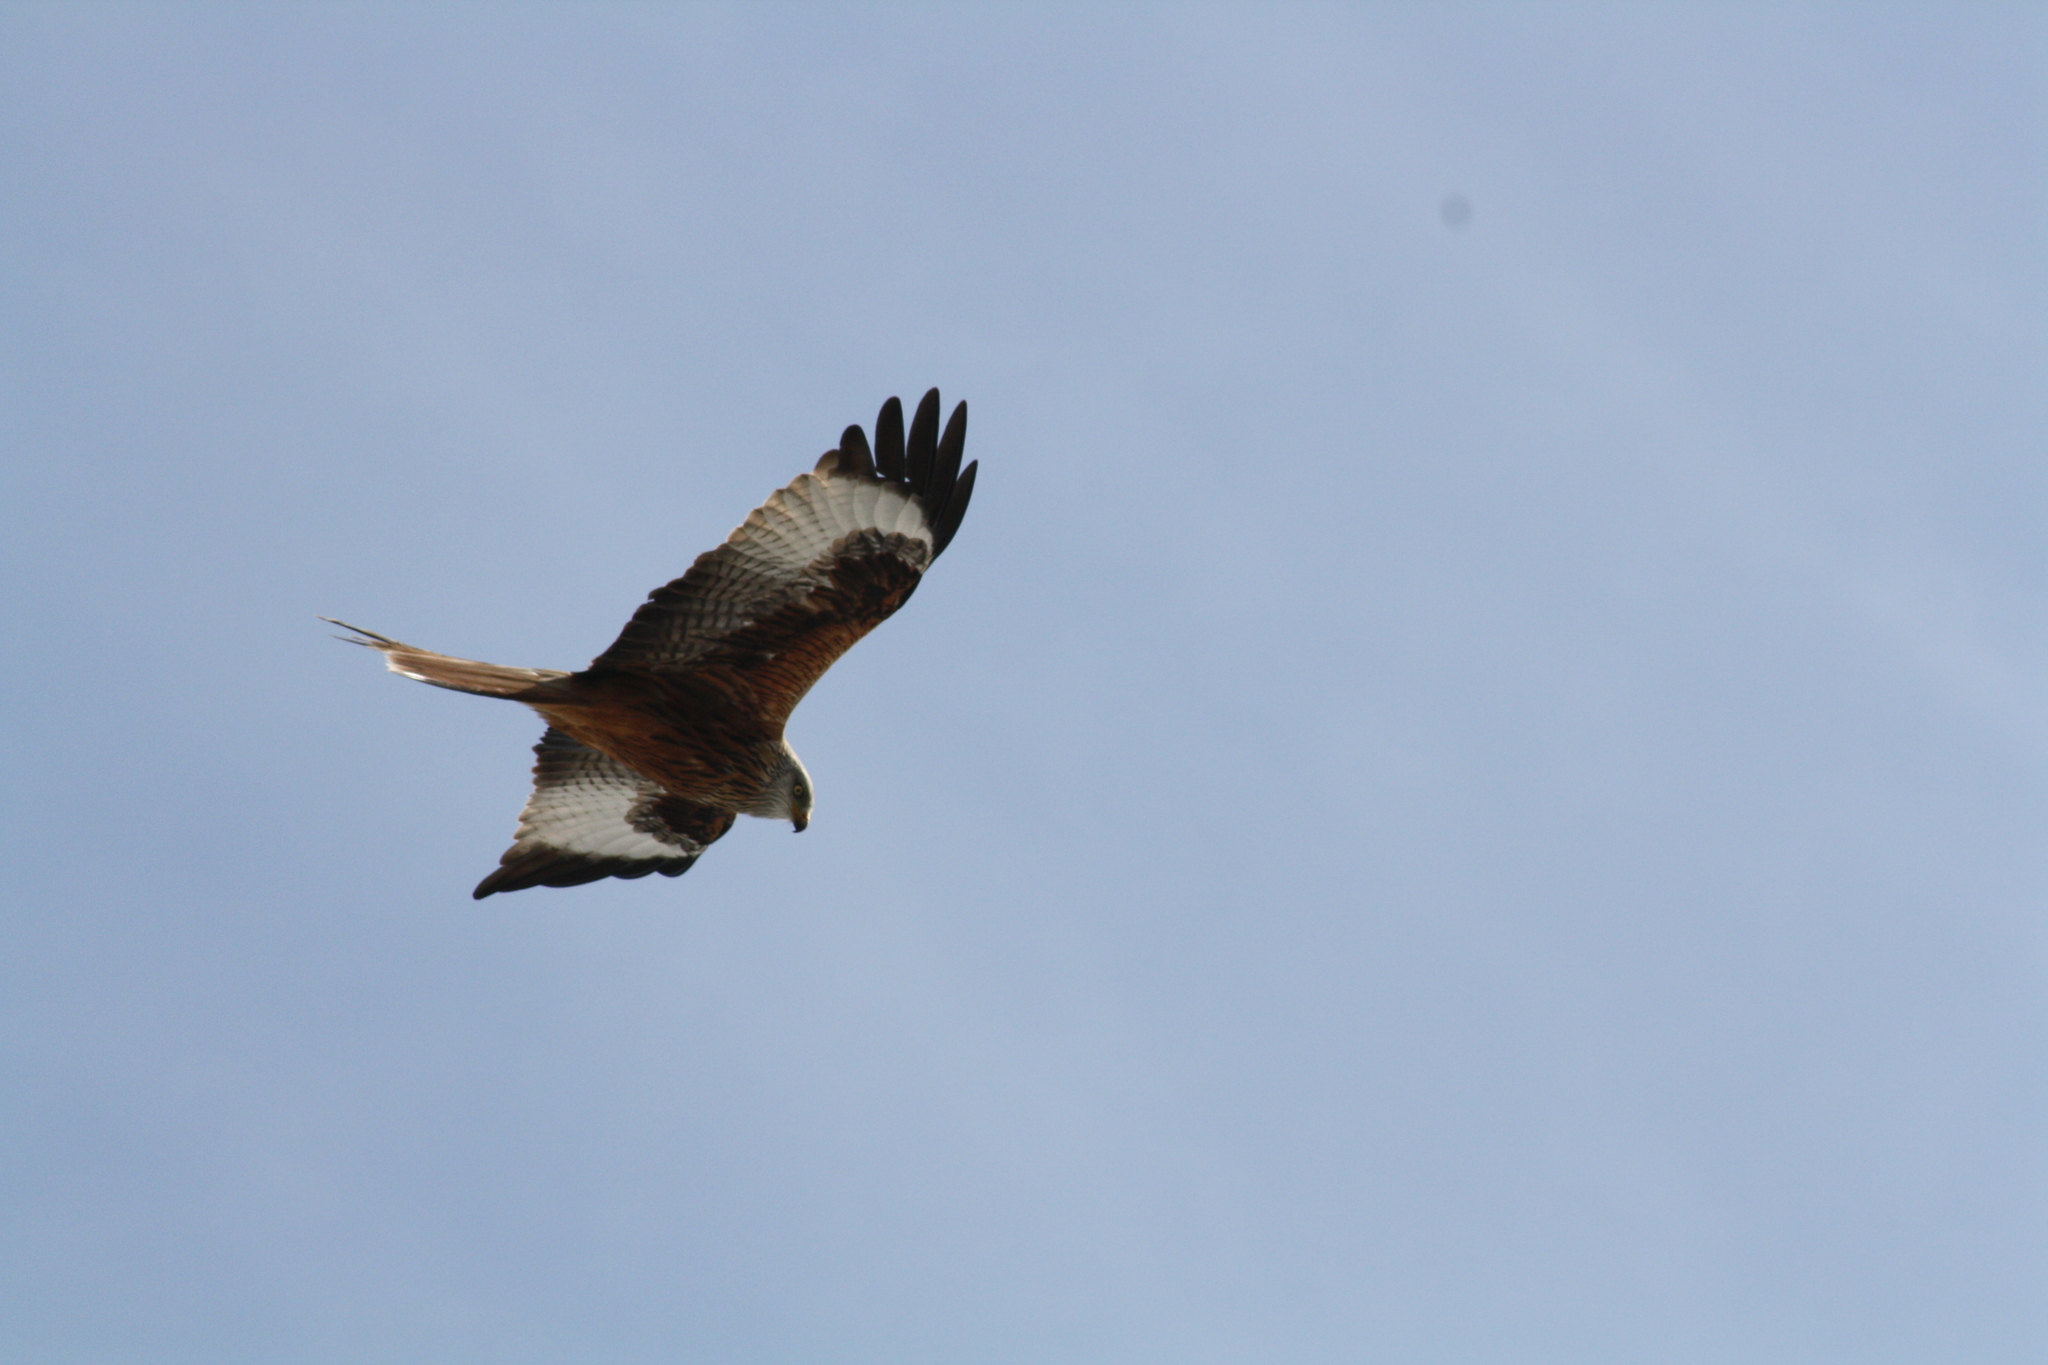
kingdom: Animalia
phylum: Chordata
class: Aves
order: Accipitriformes
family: Accipitridae
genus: Milvus
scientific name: Milvus milvus
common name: Red kite
